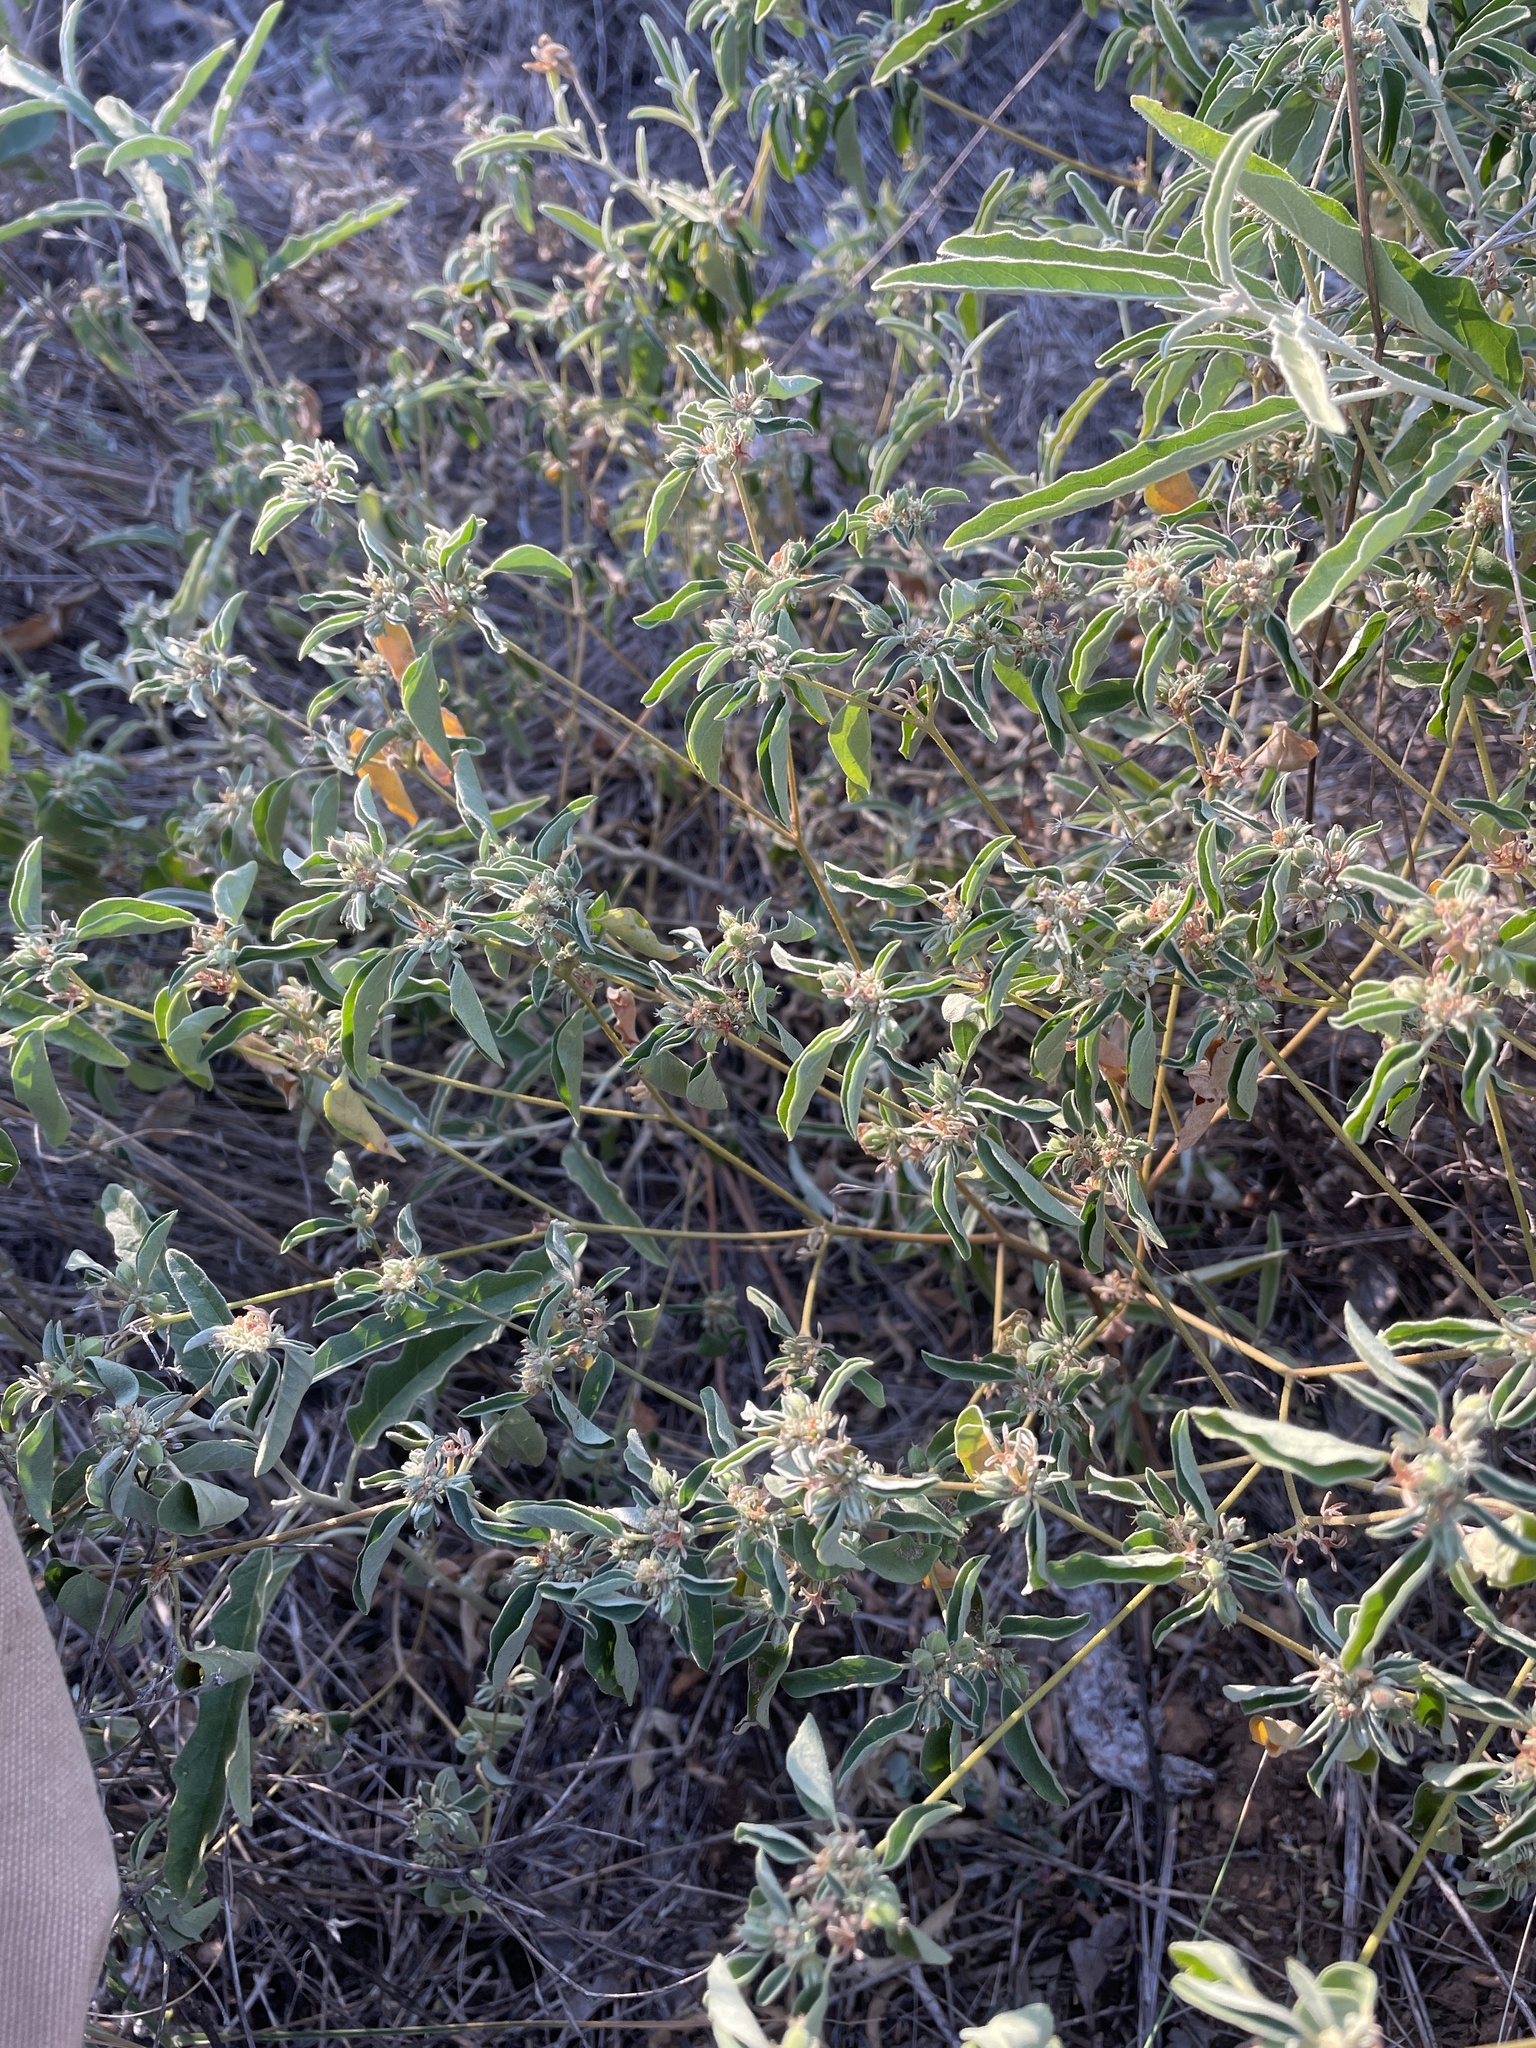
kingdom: Plantae
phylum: Tracheophyta
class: Magnoliopsida
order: Malpighiales
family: Euphorbiaceae
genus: Croton
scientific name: Croton monanthogynus
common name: One-seed croton
